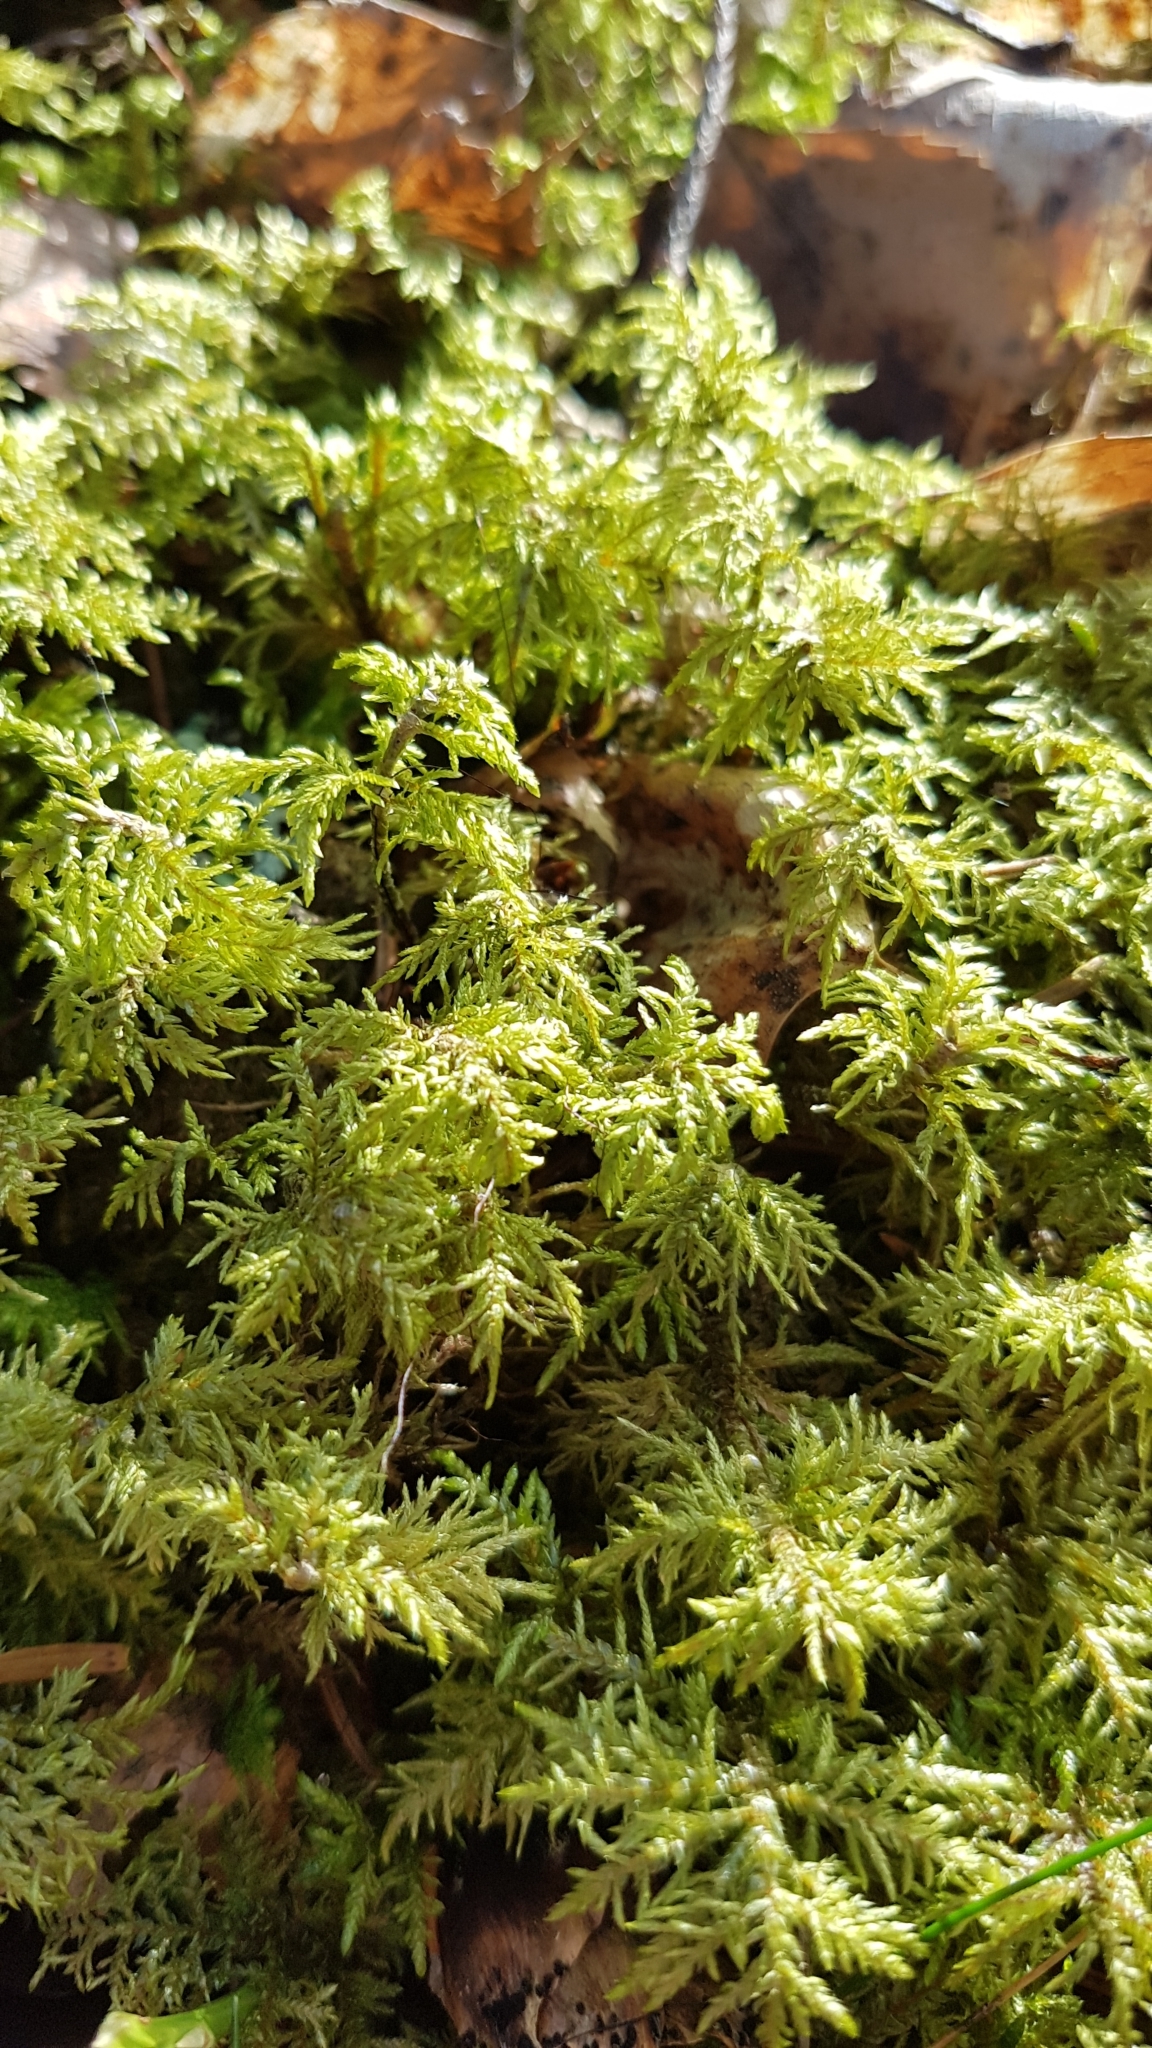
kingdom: Plantae
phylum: Bryophyta
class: Bryopsida
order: Hypnales
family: Hylocomiaceae
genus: Hylocomium
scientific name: Hylocomium splendens
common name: Stairstep moss
